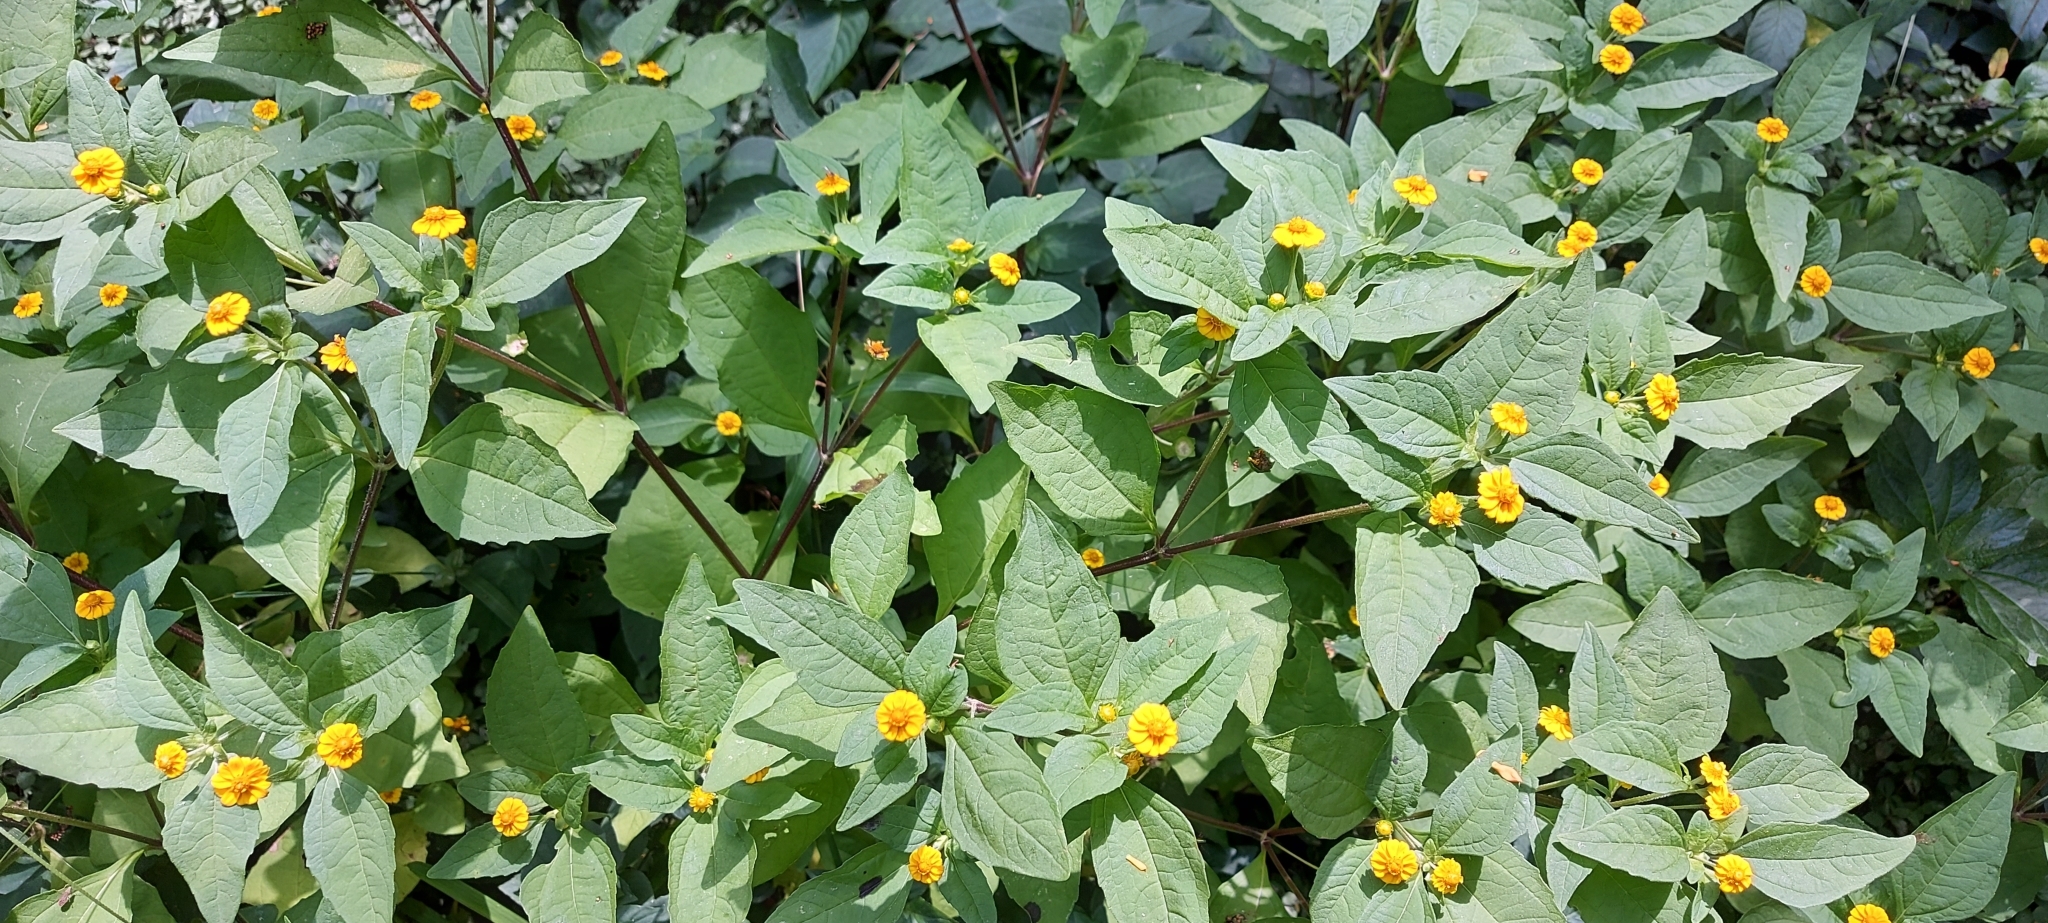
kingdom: Plantae
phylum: Tracheophyta
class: Magnoliopsida
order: Asterales
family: Asteraceae
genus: Melampodium
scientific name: Melampodium divaricatum
